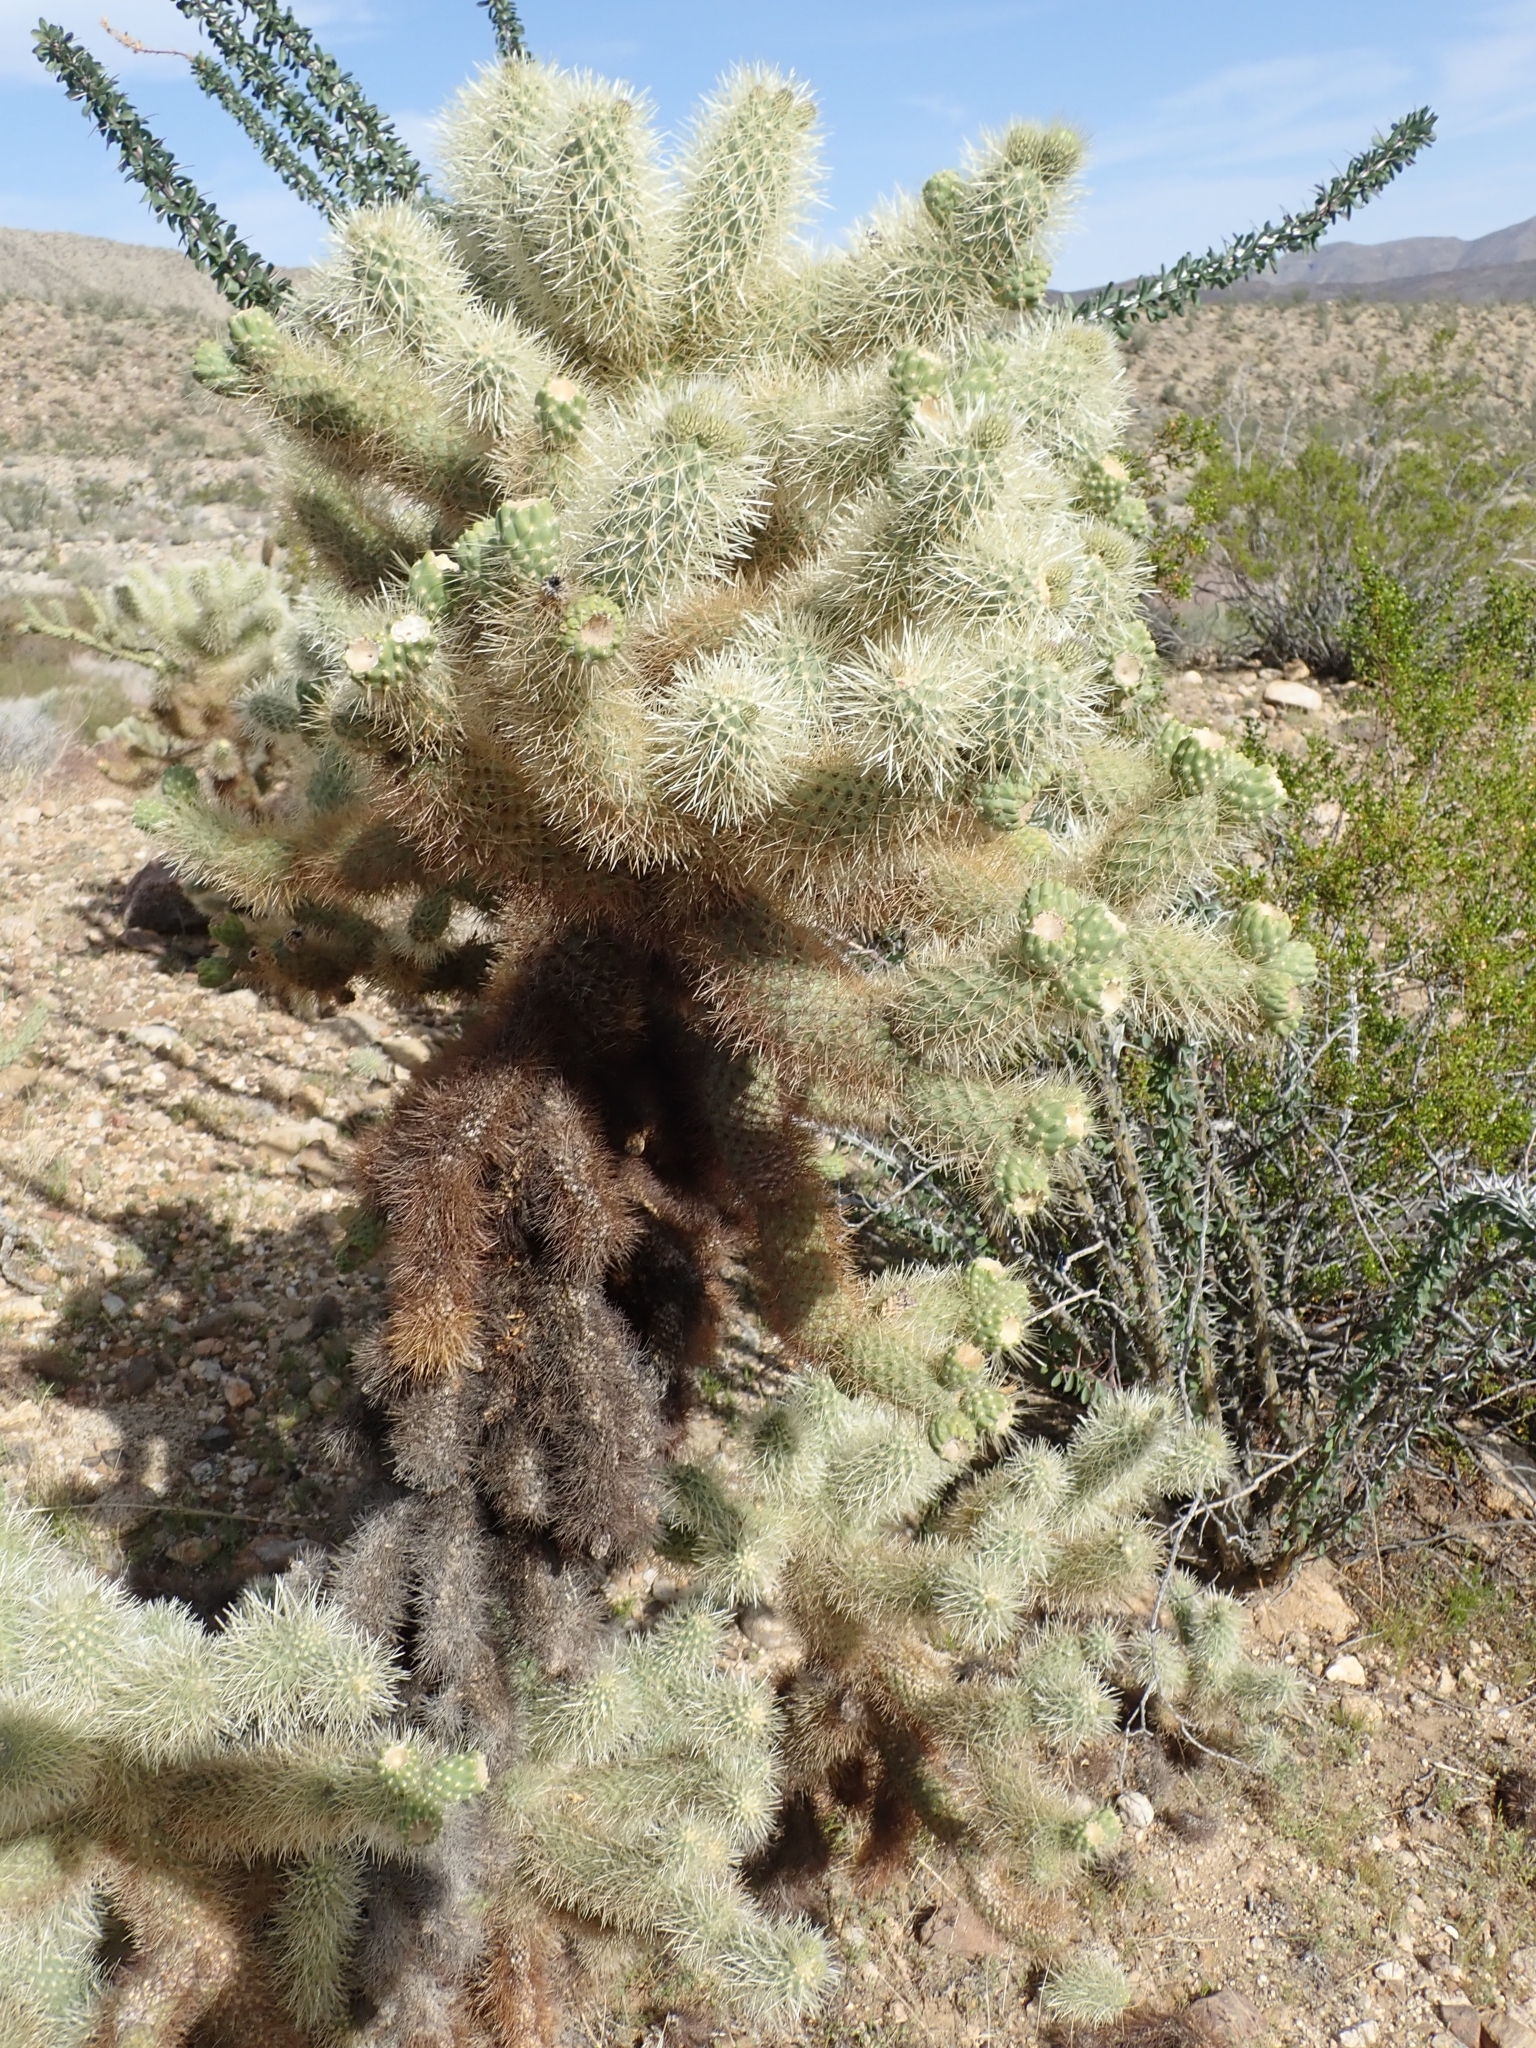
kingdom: Plantae
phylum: Tracheophyta
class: Magnoliopsida
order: Caryophyllales
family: Cactaceae
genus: Cylindropuntia
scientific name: Cylindropuntia fosbergii
